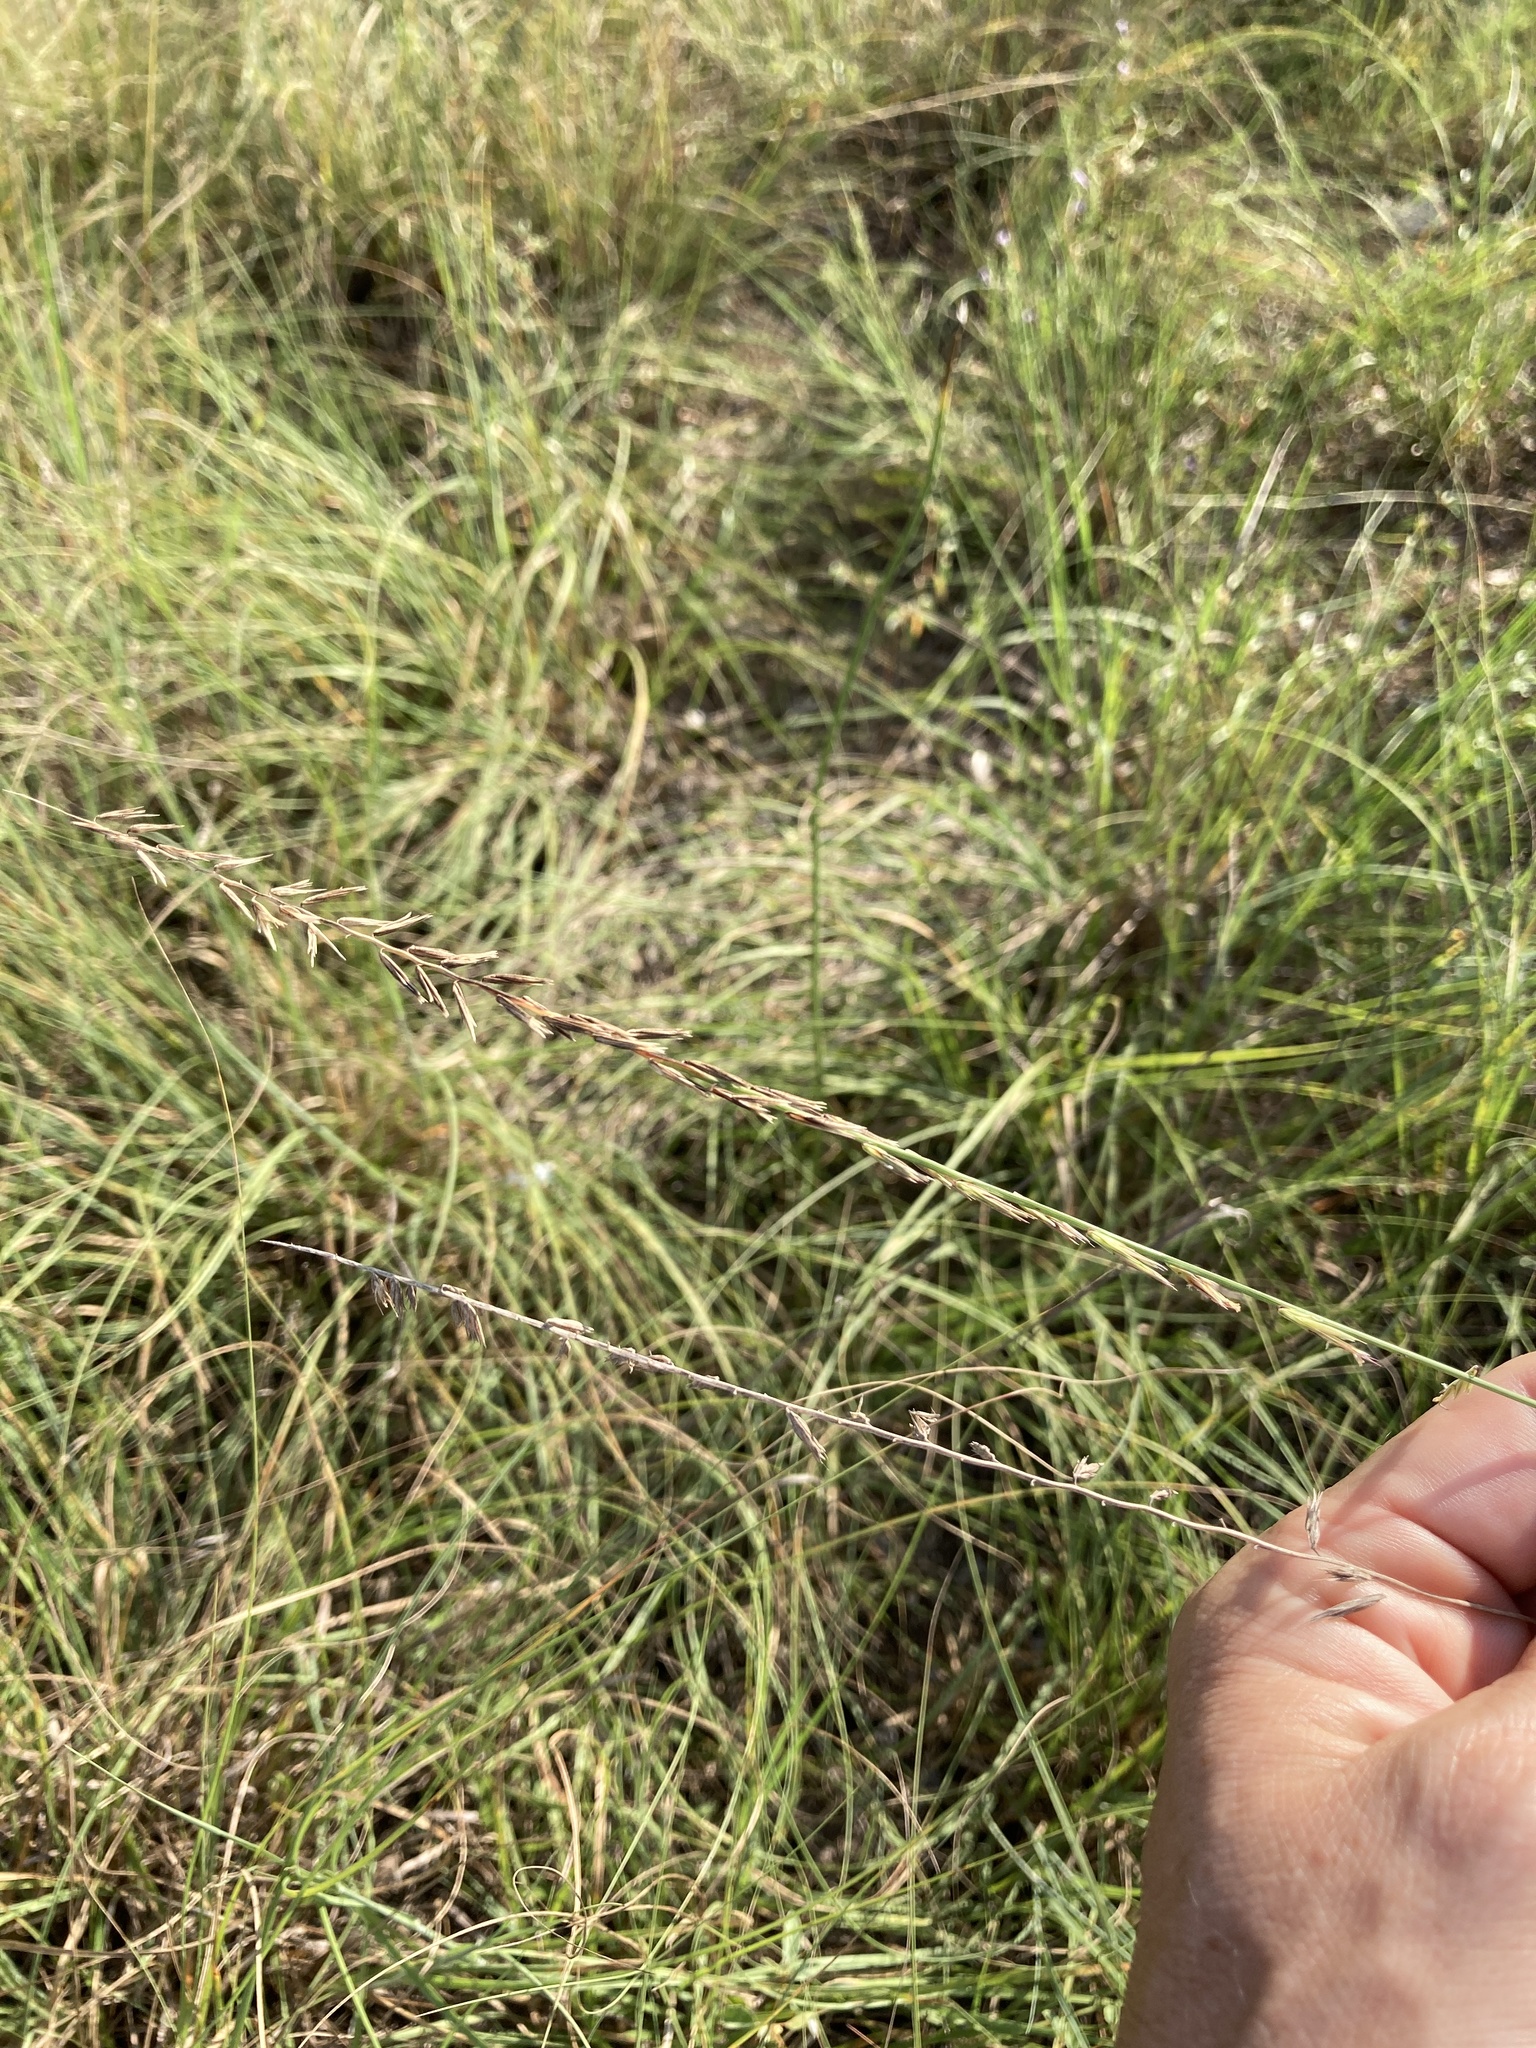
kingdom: Plantae
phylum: Tracheophyta
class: Liliopsida
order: Poales
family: Poaceae
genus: Bouteloua
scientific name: Bouteloua curtipendula
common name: Side-oats grama
